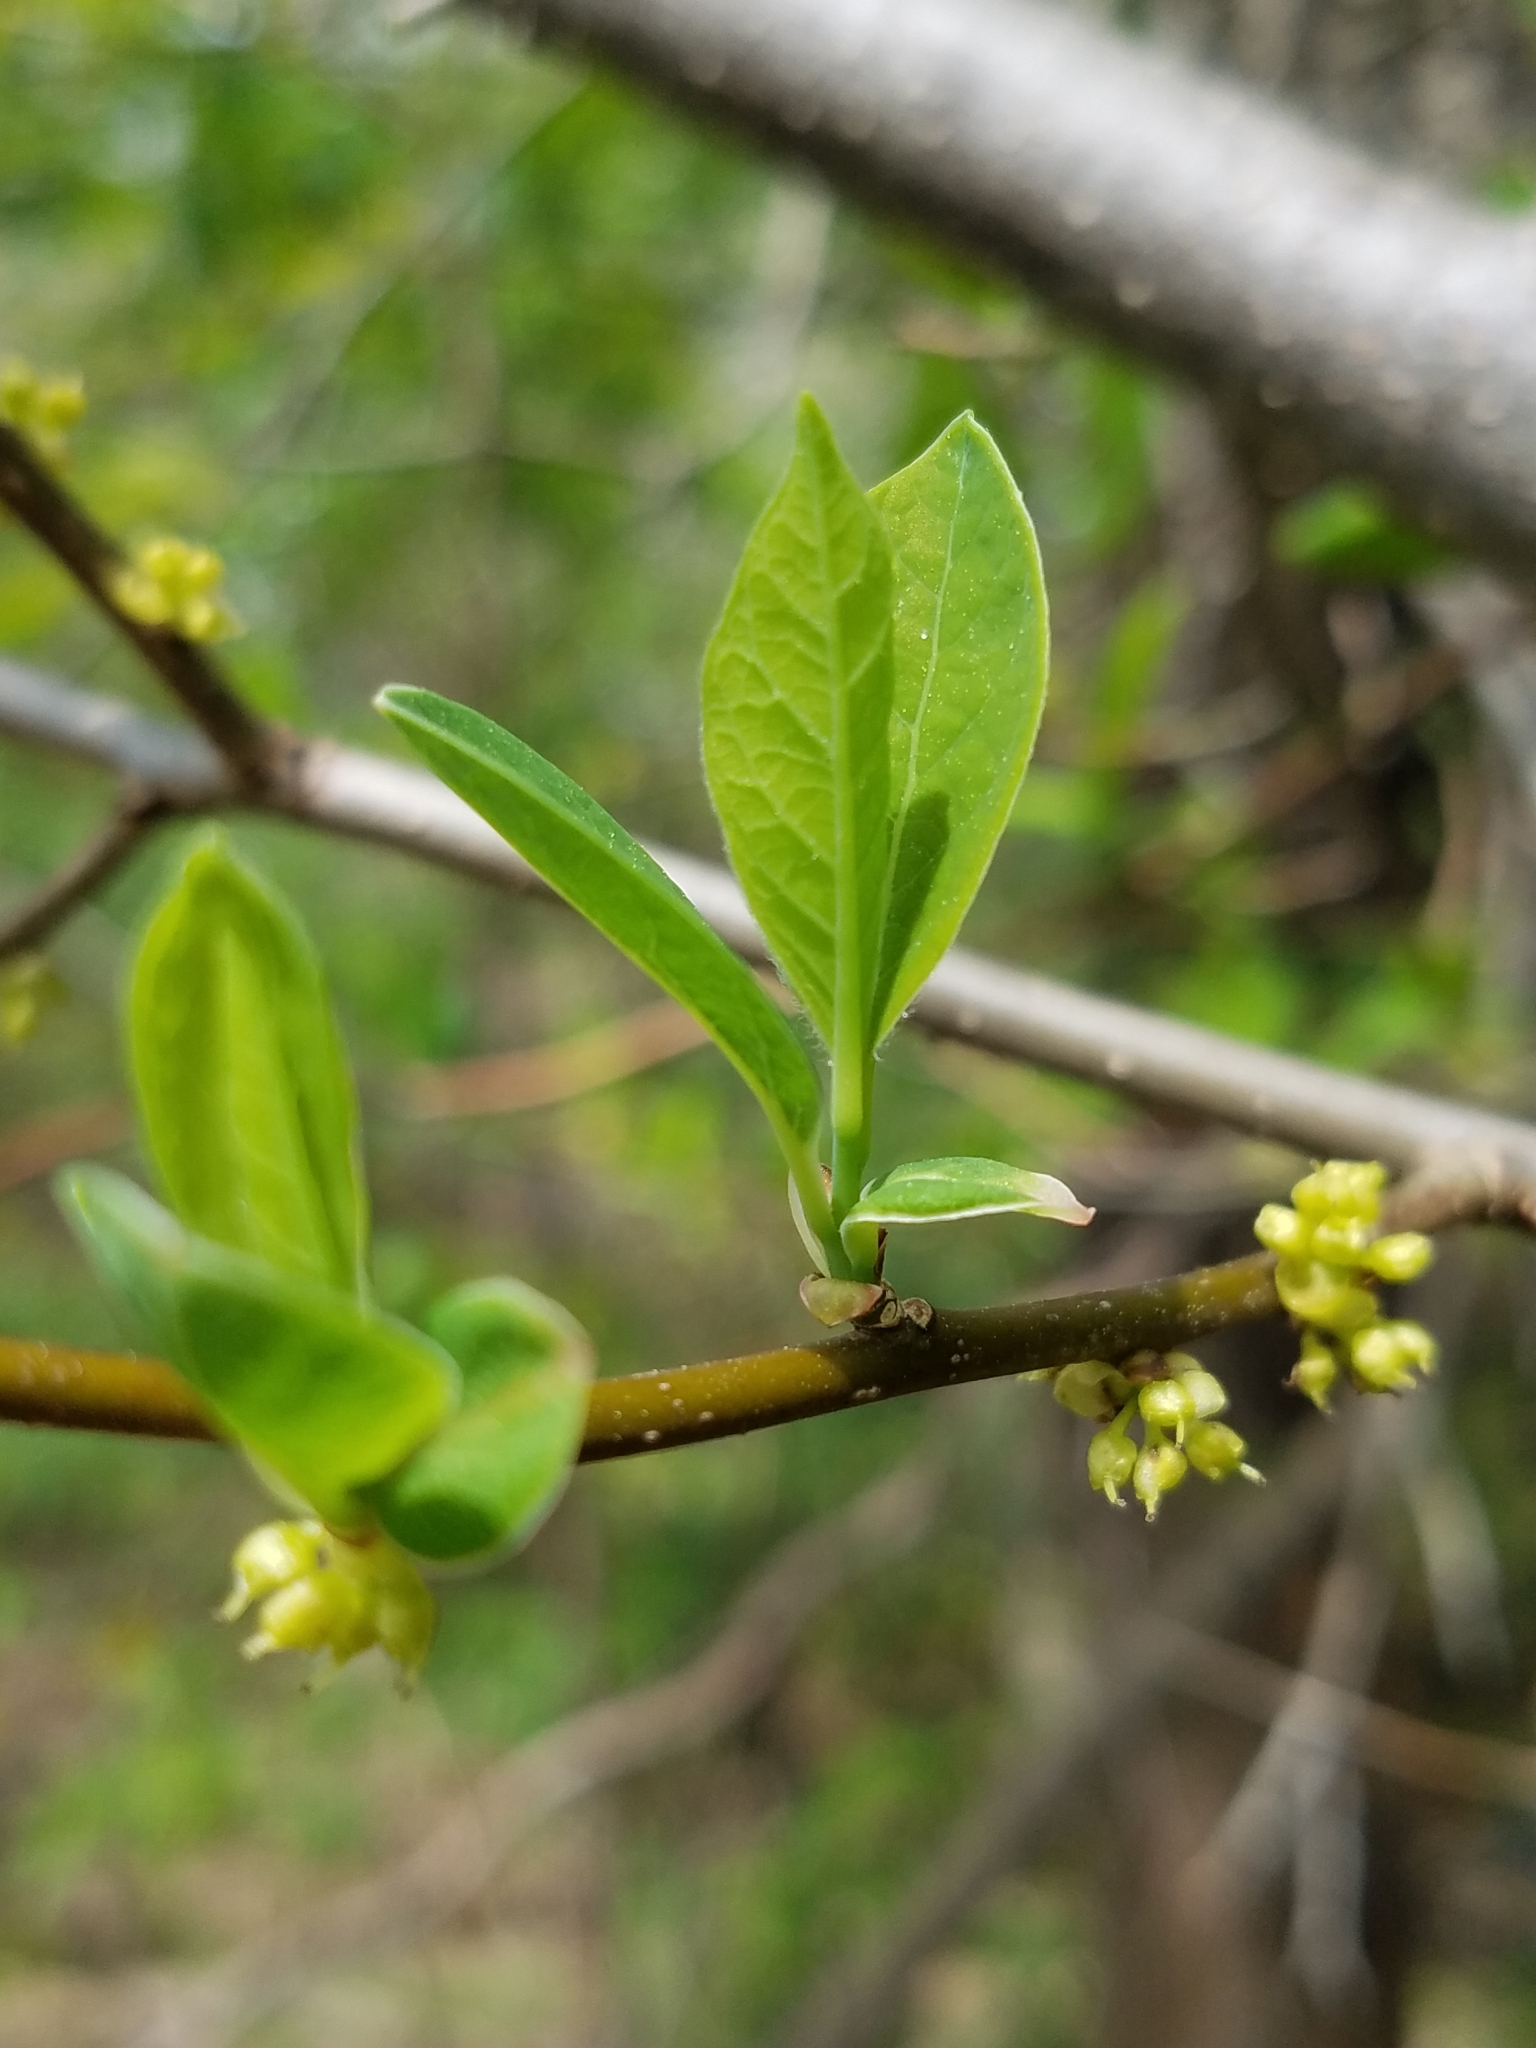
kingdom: Plantae
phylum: Tracheophyta
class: Magnoliopsida
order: Laurales
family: Lauraceae
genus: Lindera
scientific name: Lindera benzoin
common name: Spicebush
